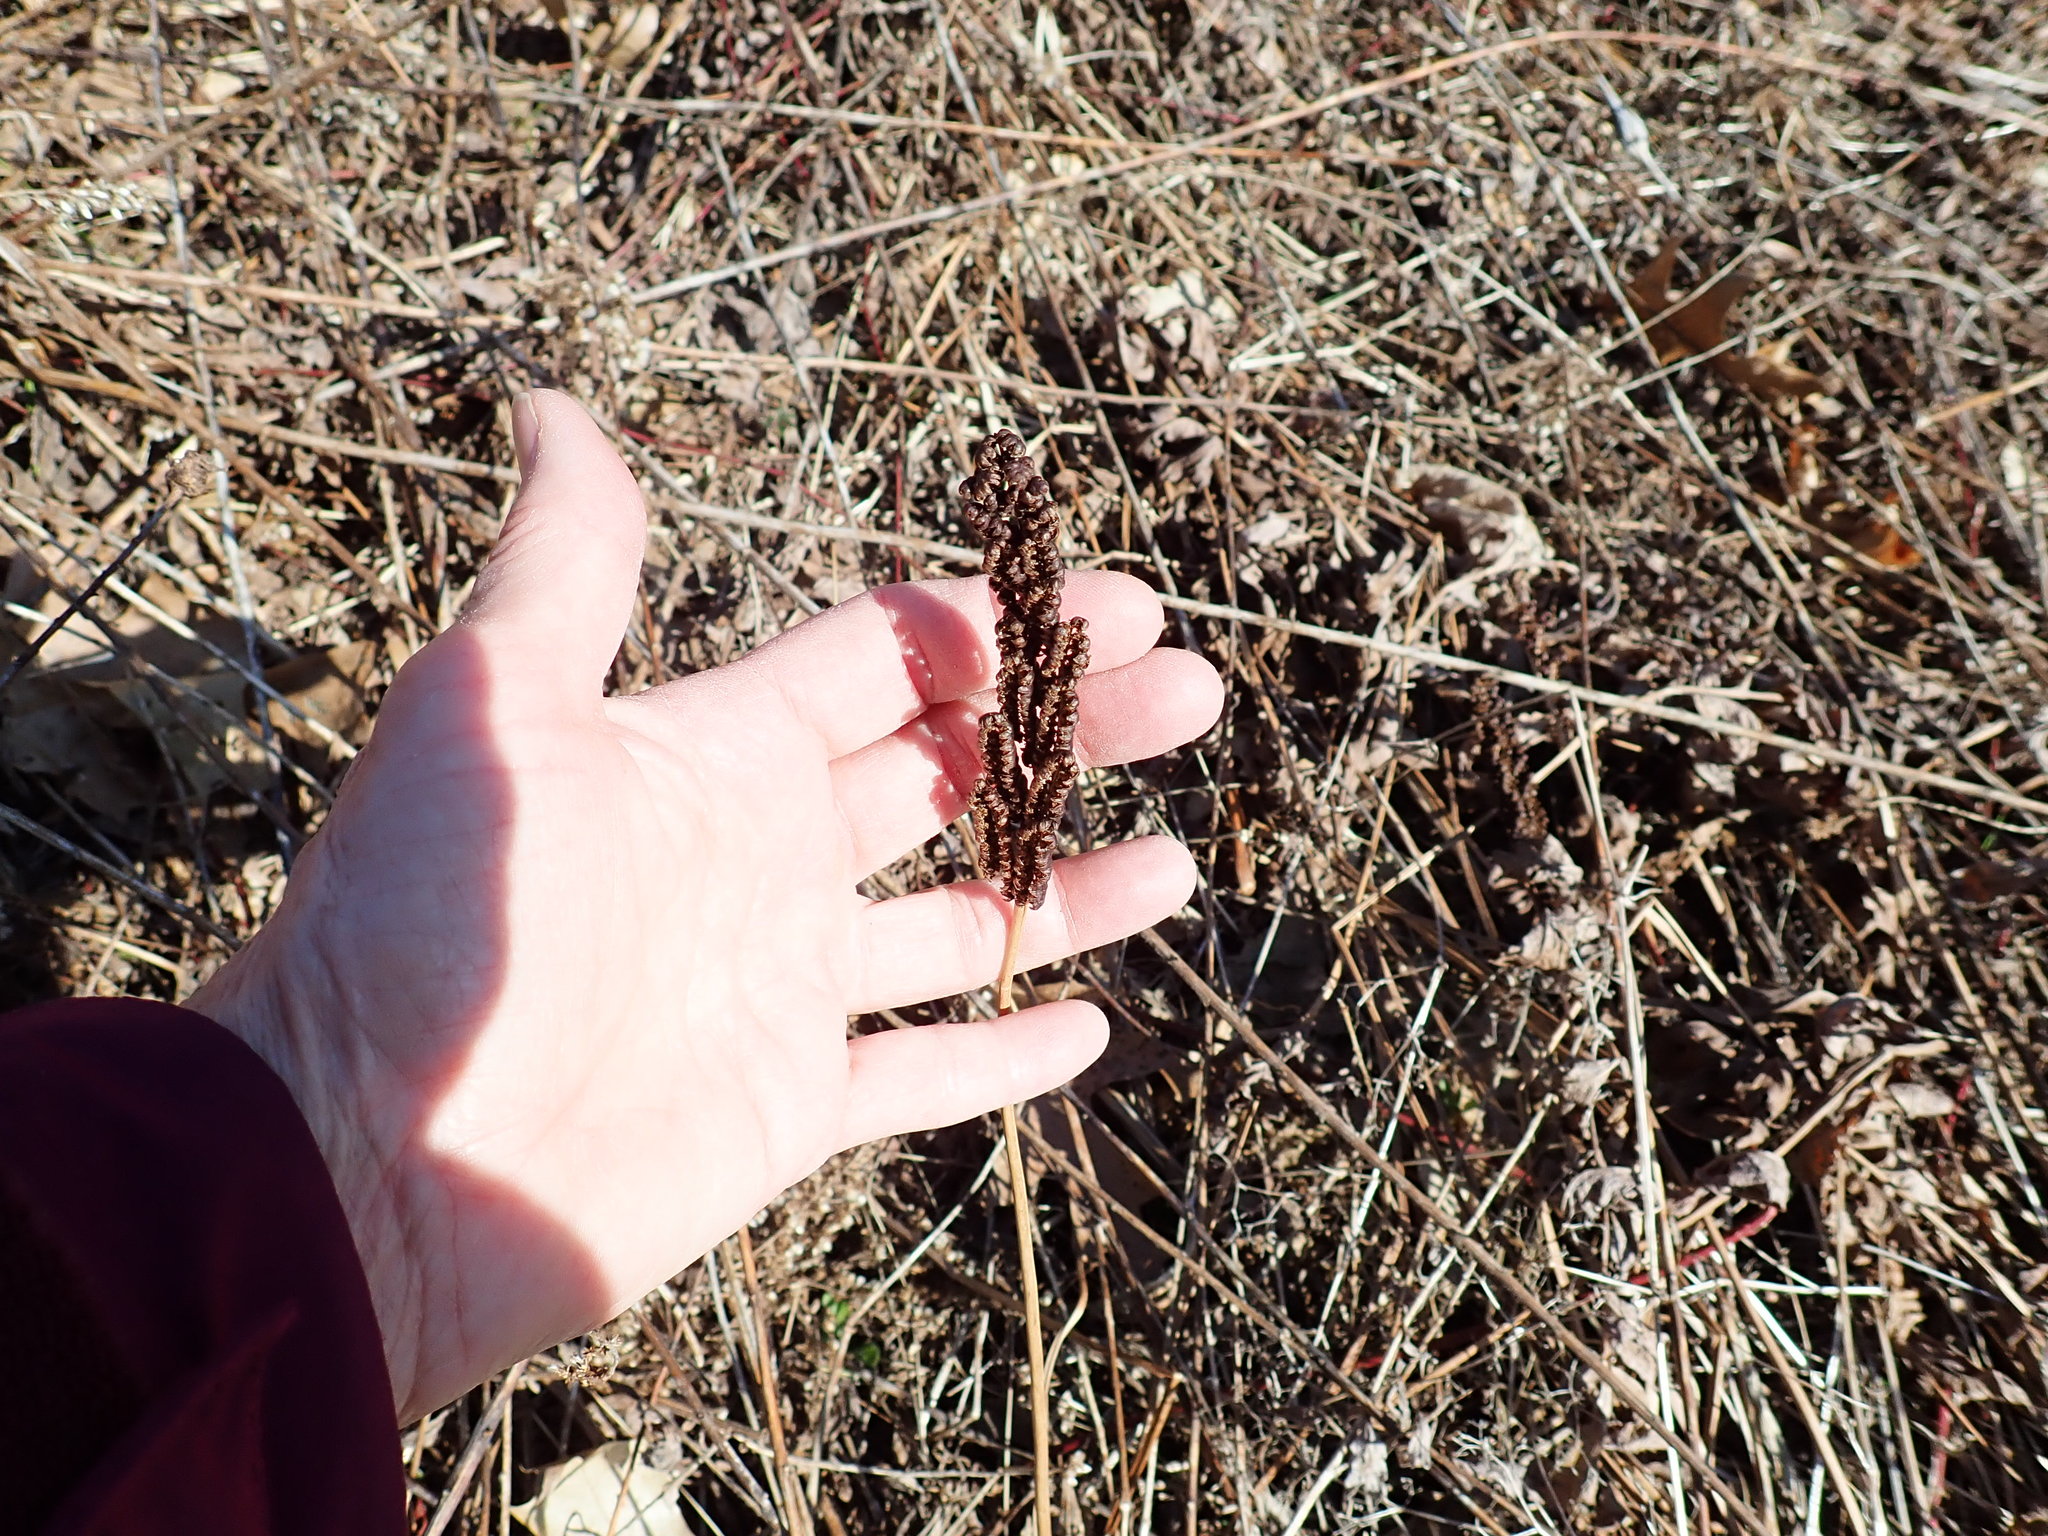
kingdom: Plantae
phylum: Tracheophyta
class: Polypodiopsida
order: Polypodiales
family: Onocleaceae
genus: Onoclea
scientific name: Onoclea sensibilis
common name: Sensitive fern
